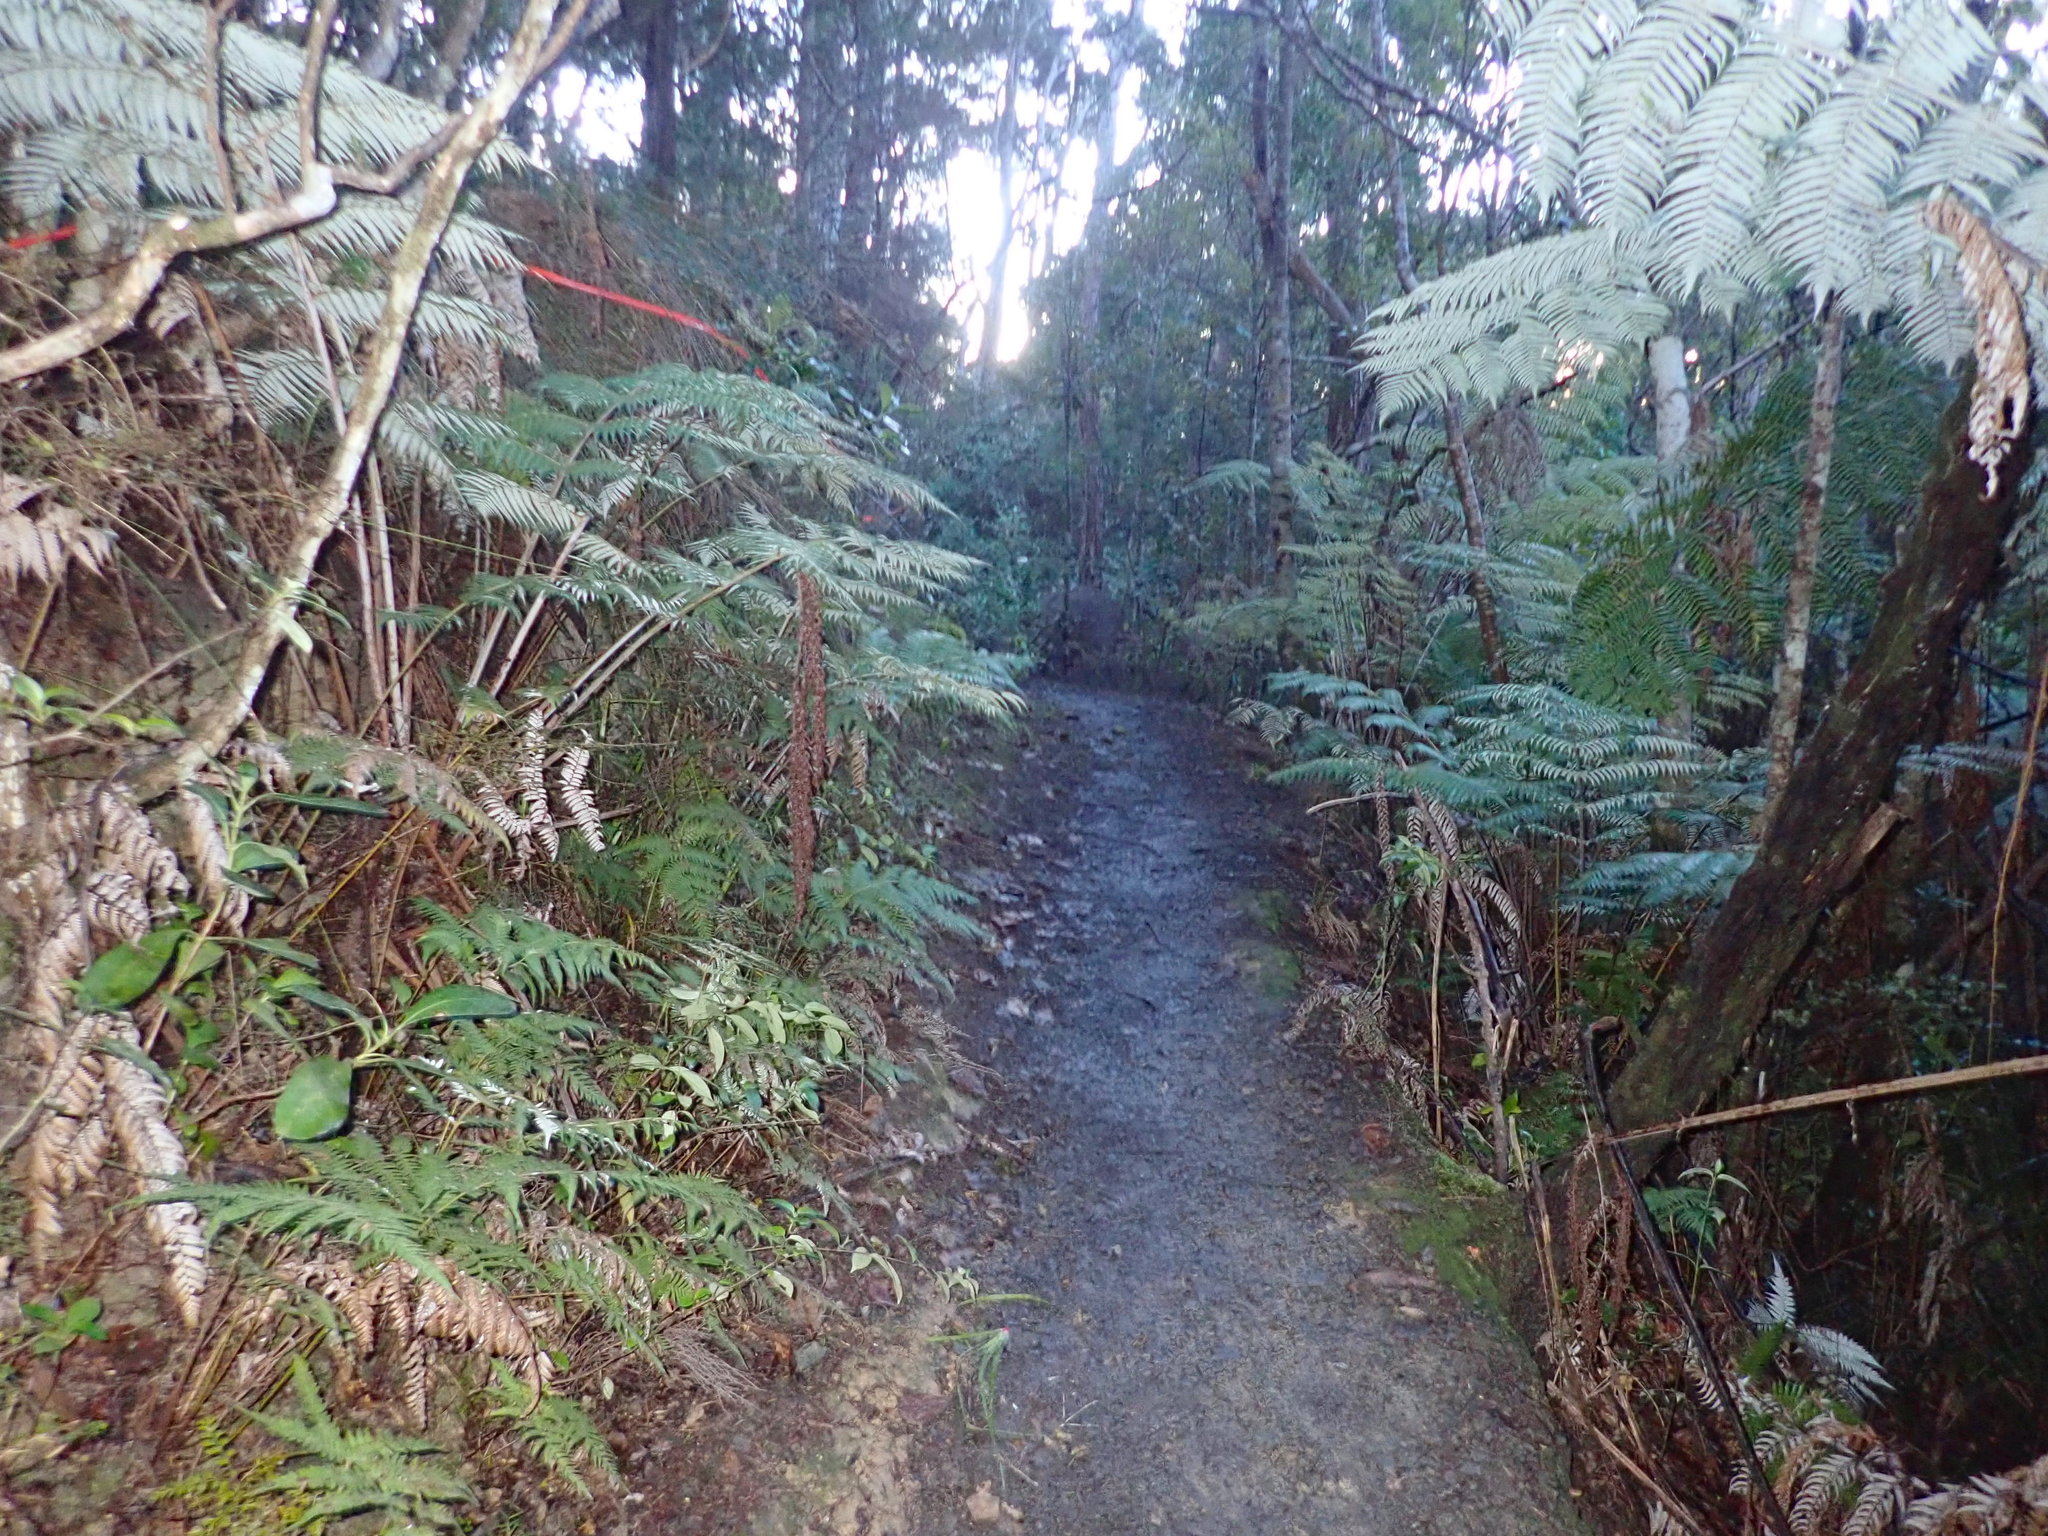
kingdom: Plantae
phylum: Tracheophyta
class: Polypodiopsida
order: Cyatheales
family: Cyatheaceae
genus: Alsophila
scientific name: Alsophila dealbata
